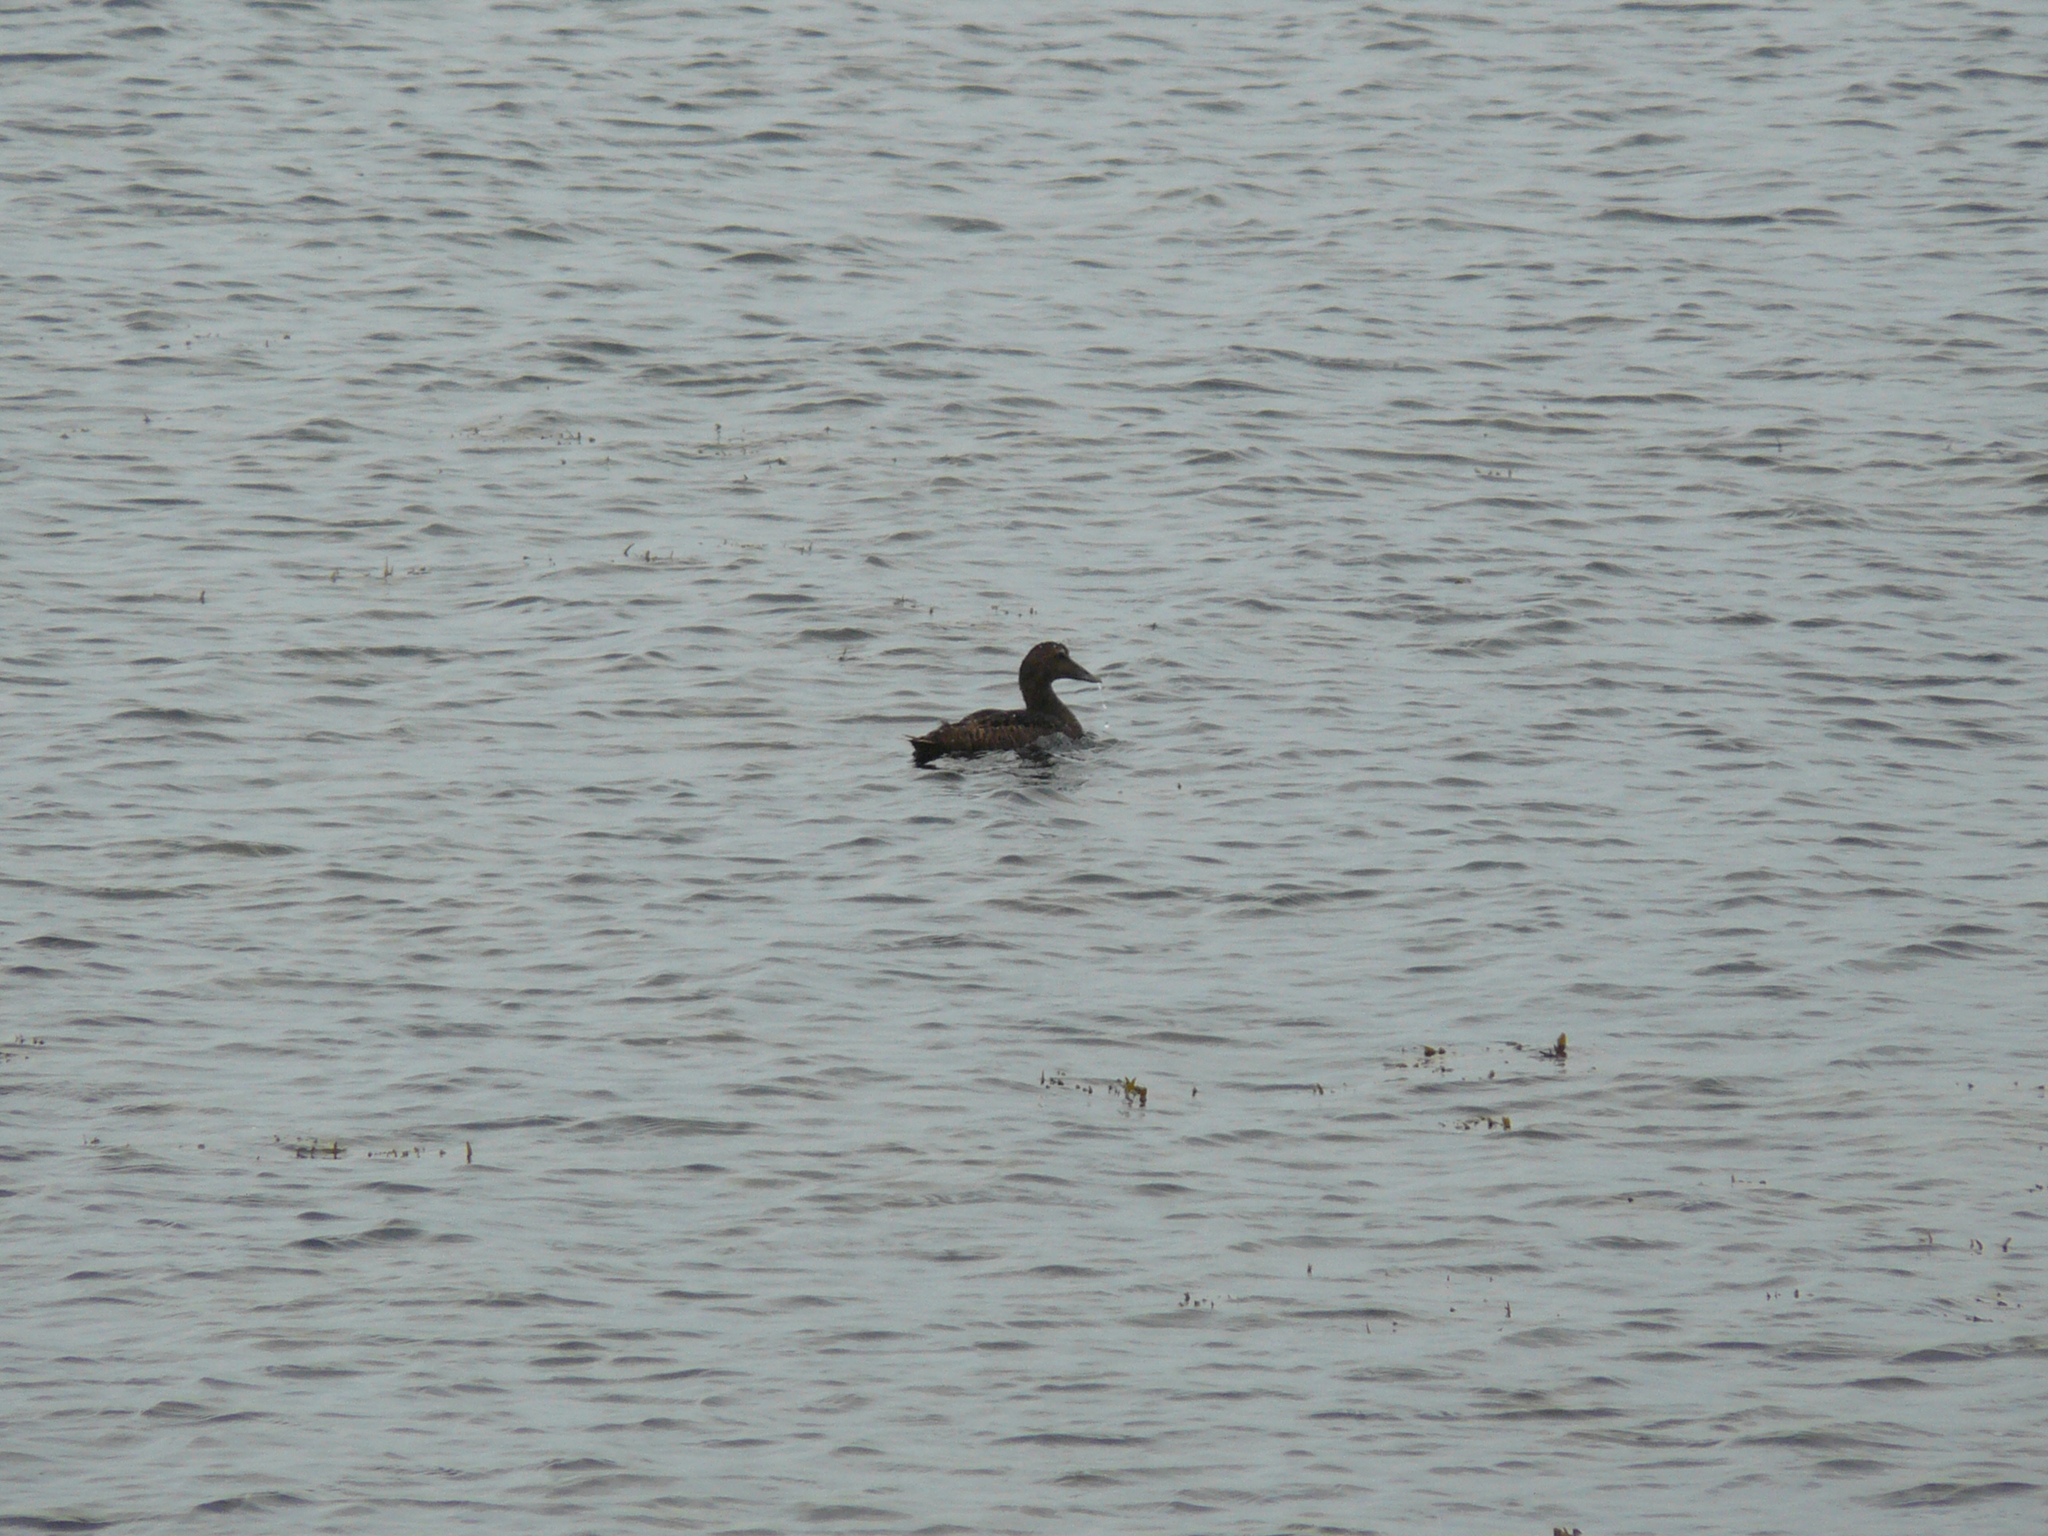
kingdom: Animalia
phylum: Chordata
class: Aves
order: Anseriformes
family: Anatidae
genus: Somateria
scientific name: Somateria mollissima
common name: Common eider
